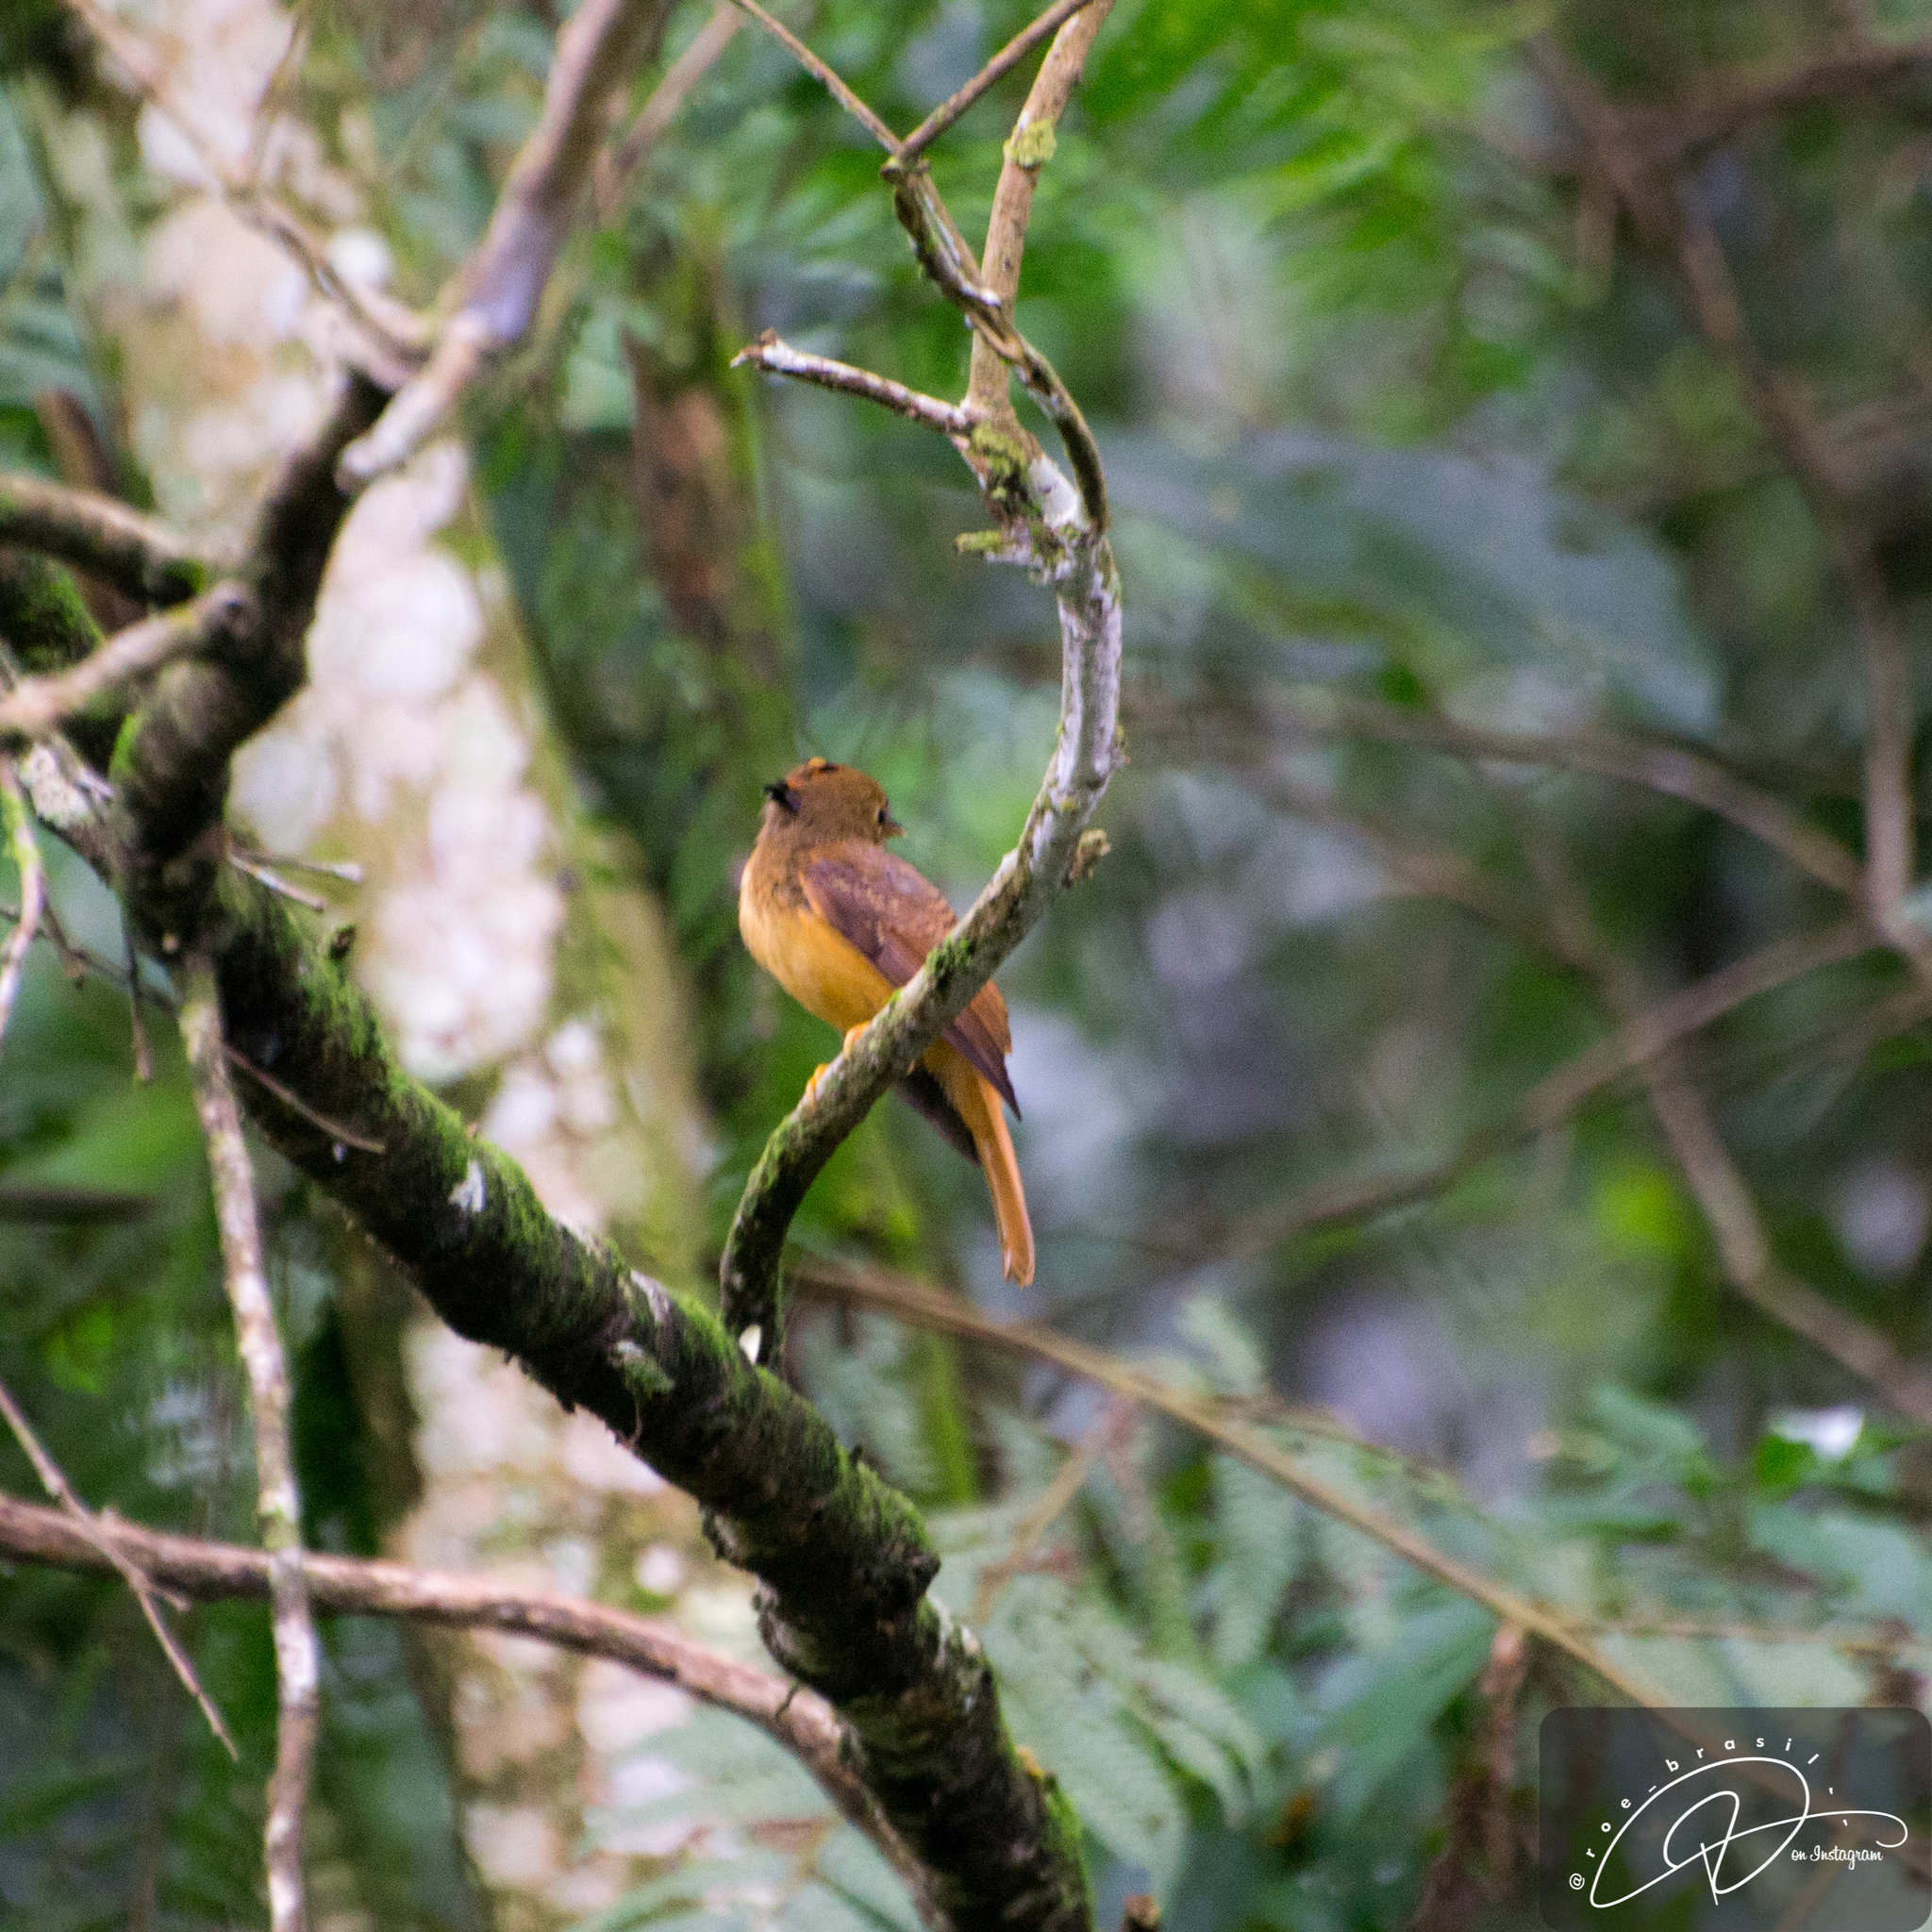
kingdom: Animalia
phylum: Chordata
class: Aves
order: Passeriformes
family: Tyrannidae
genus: Onychorhynchus
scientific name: Onychorhynchus coronatus
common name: Royal flycatcher
